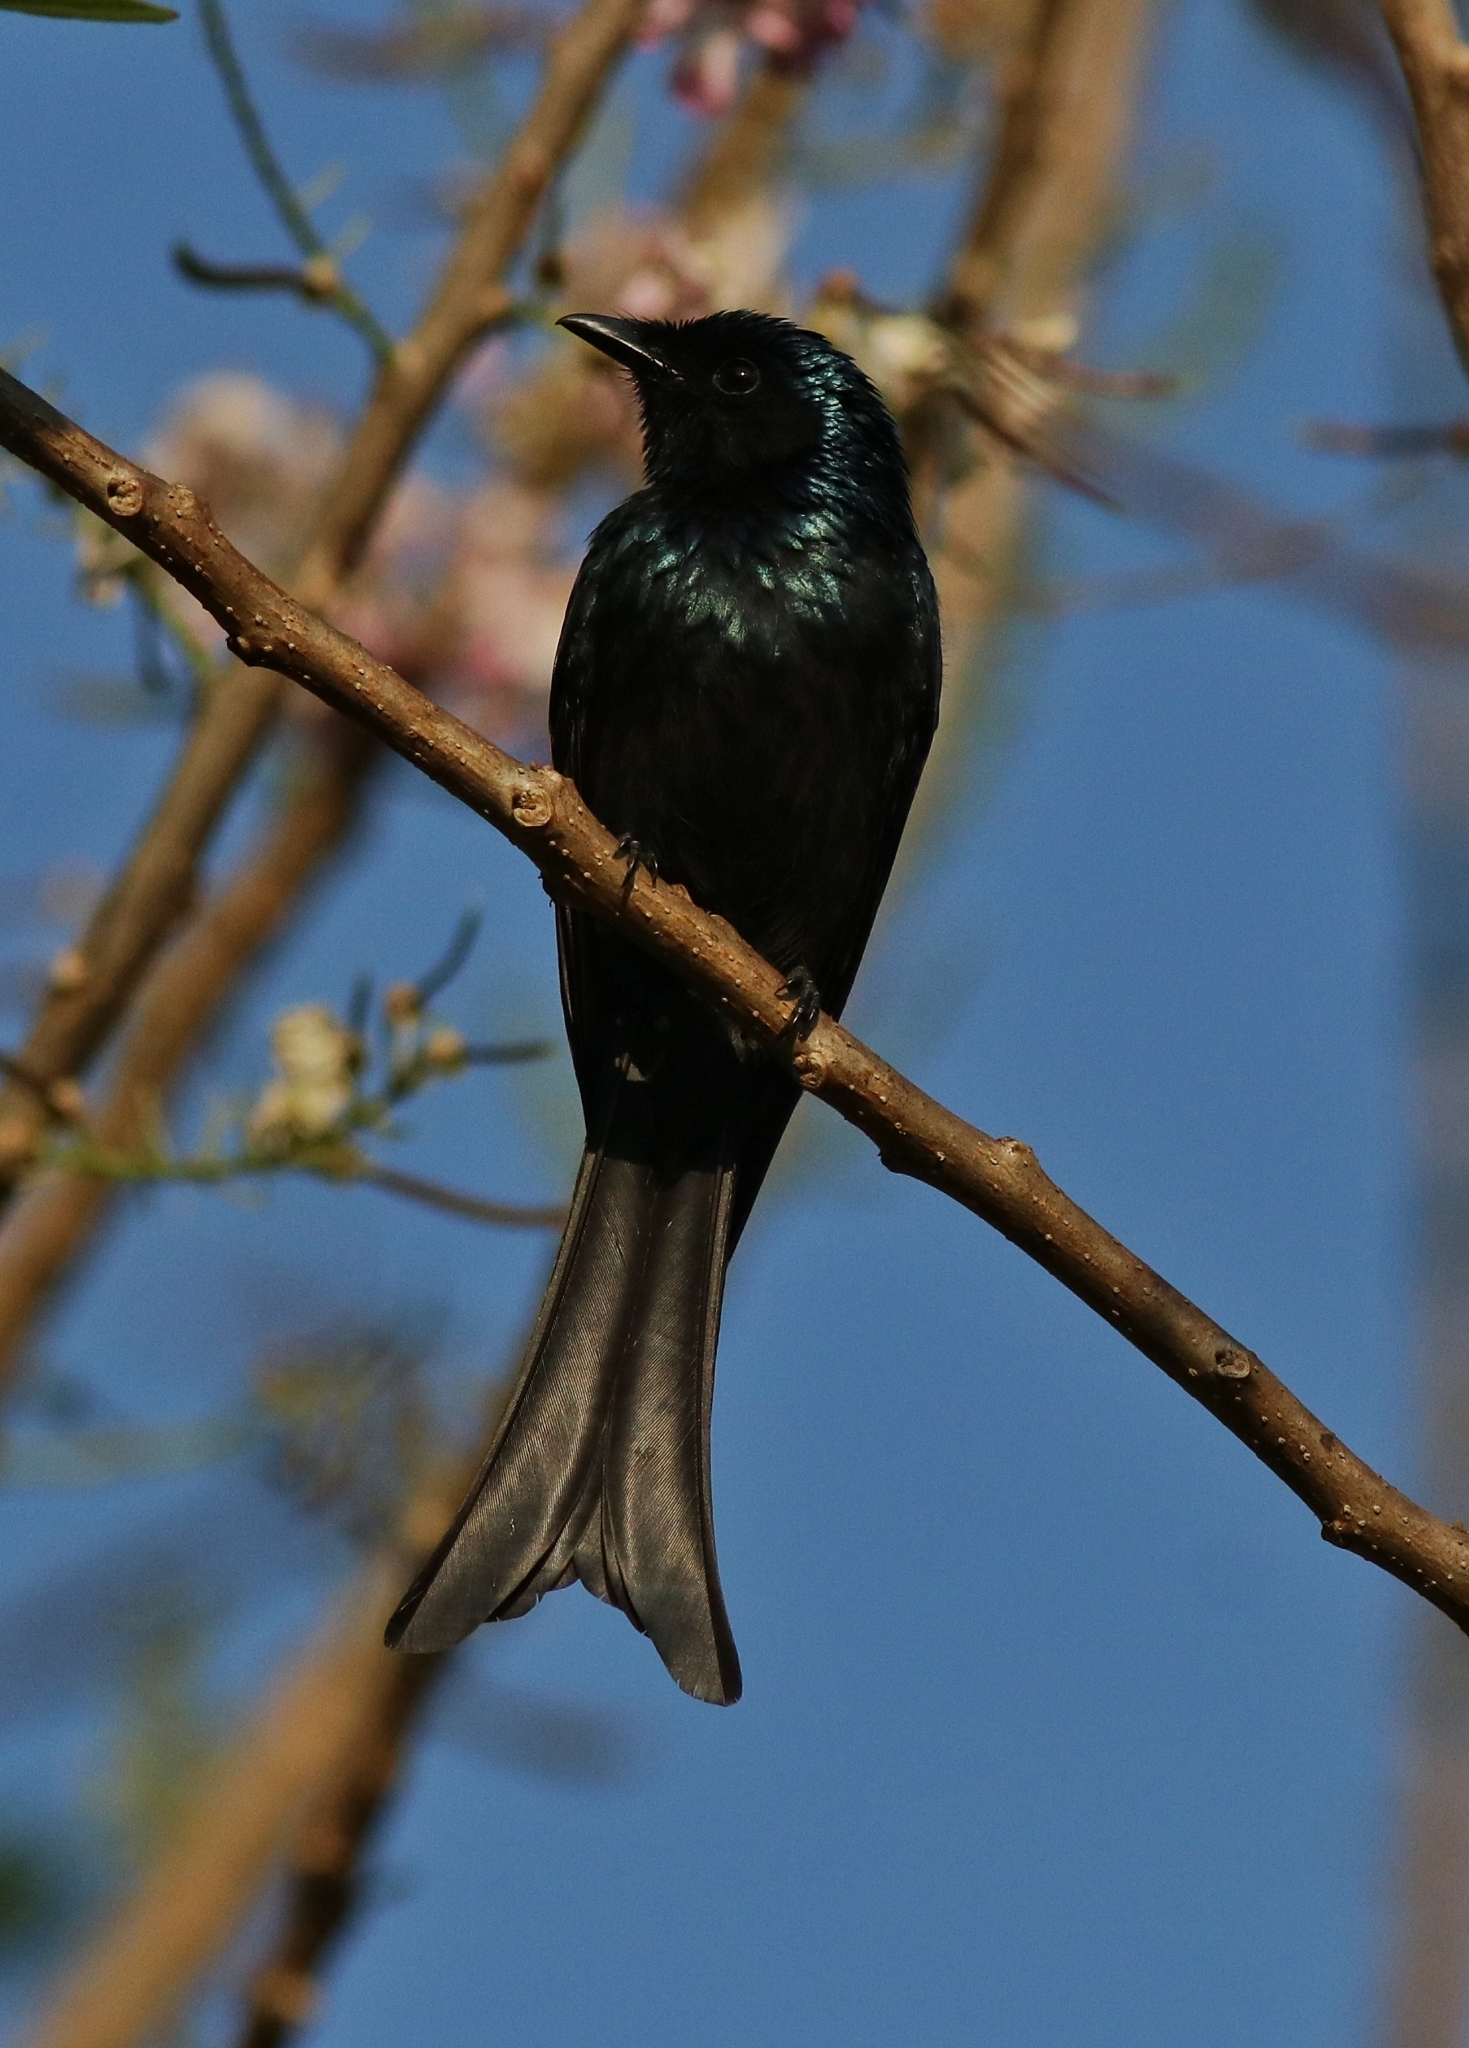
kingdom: Animalia
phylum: Chordata
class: Aves
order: Passeriformes
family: Dicruridae
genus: Dicrurus
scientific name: Dicrurus aeneus
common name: Bronzed drongo
